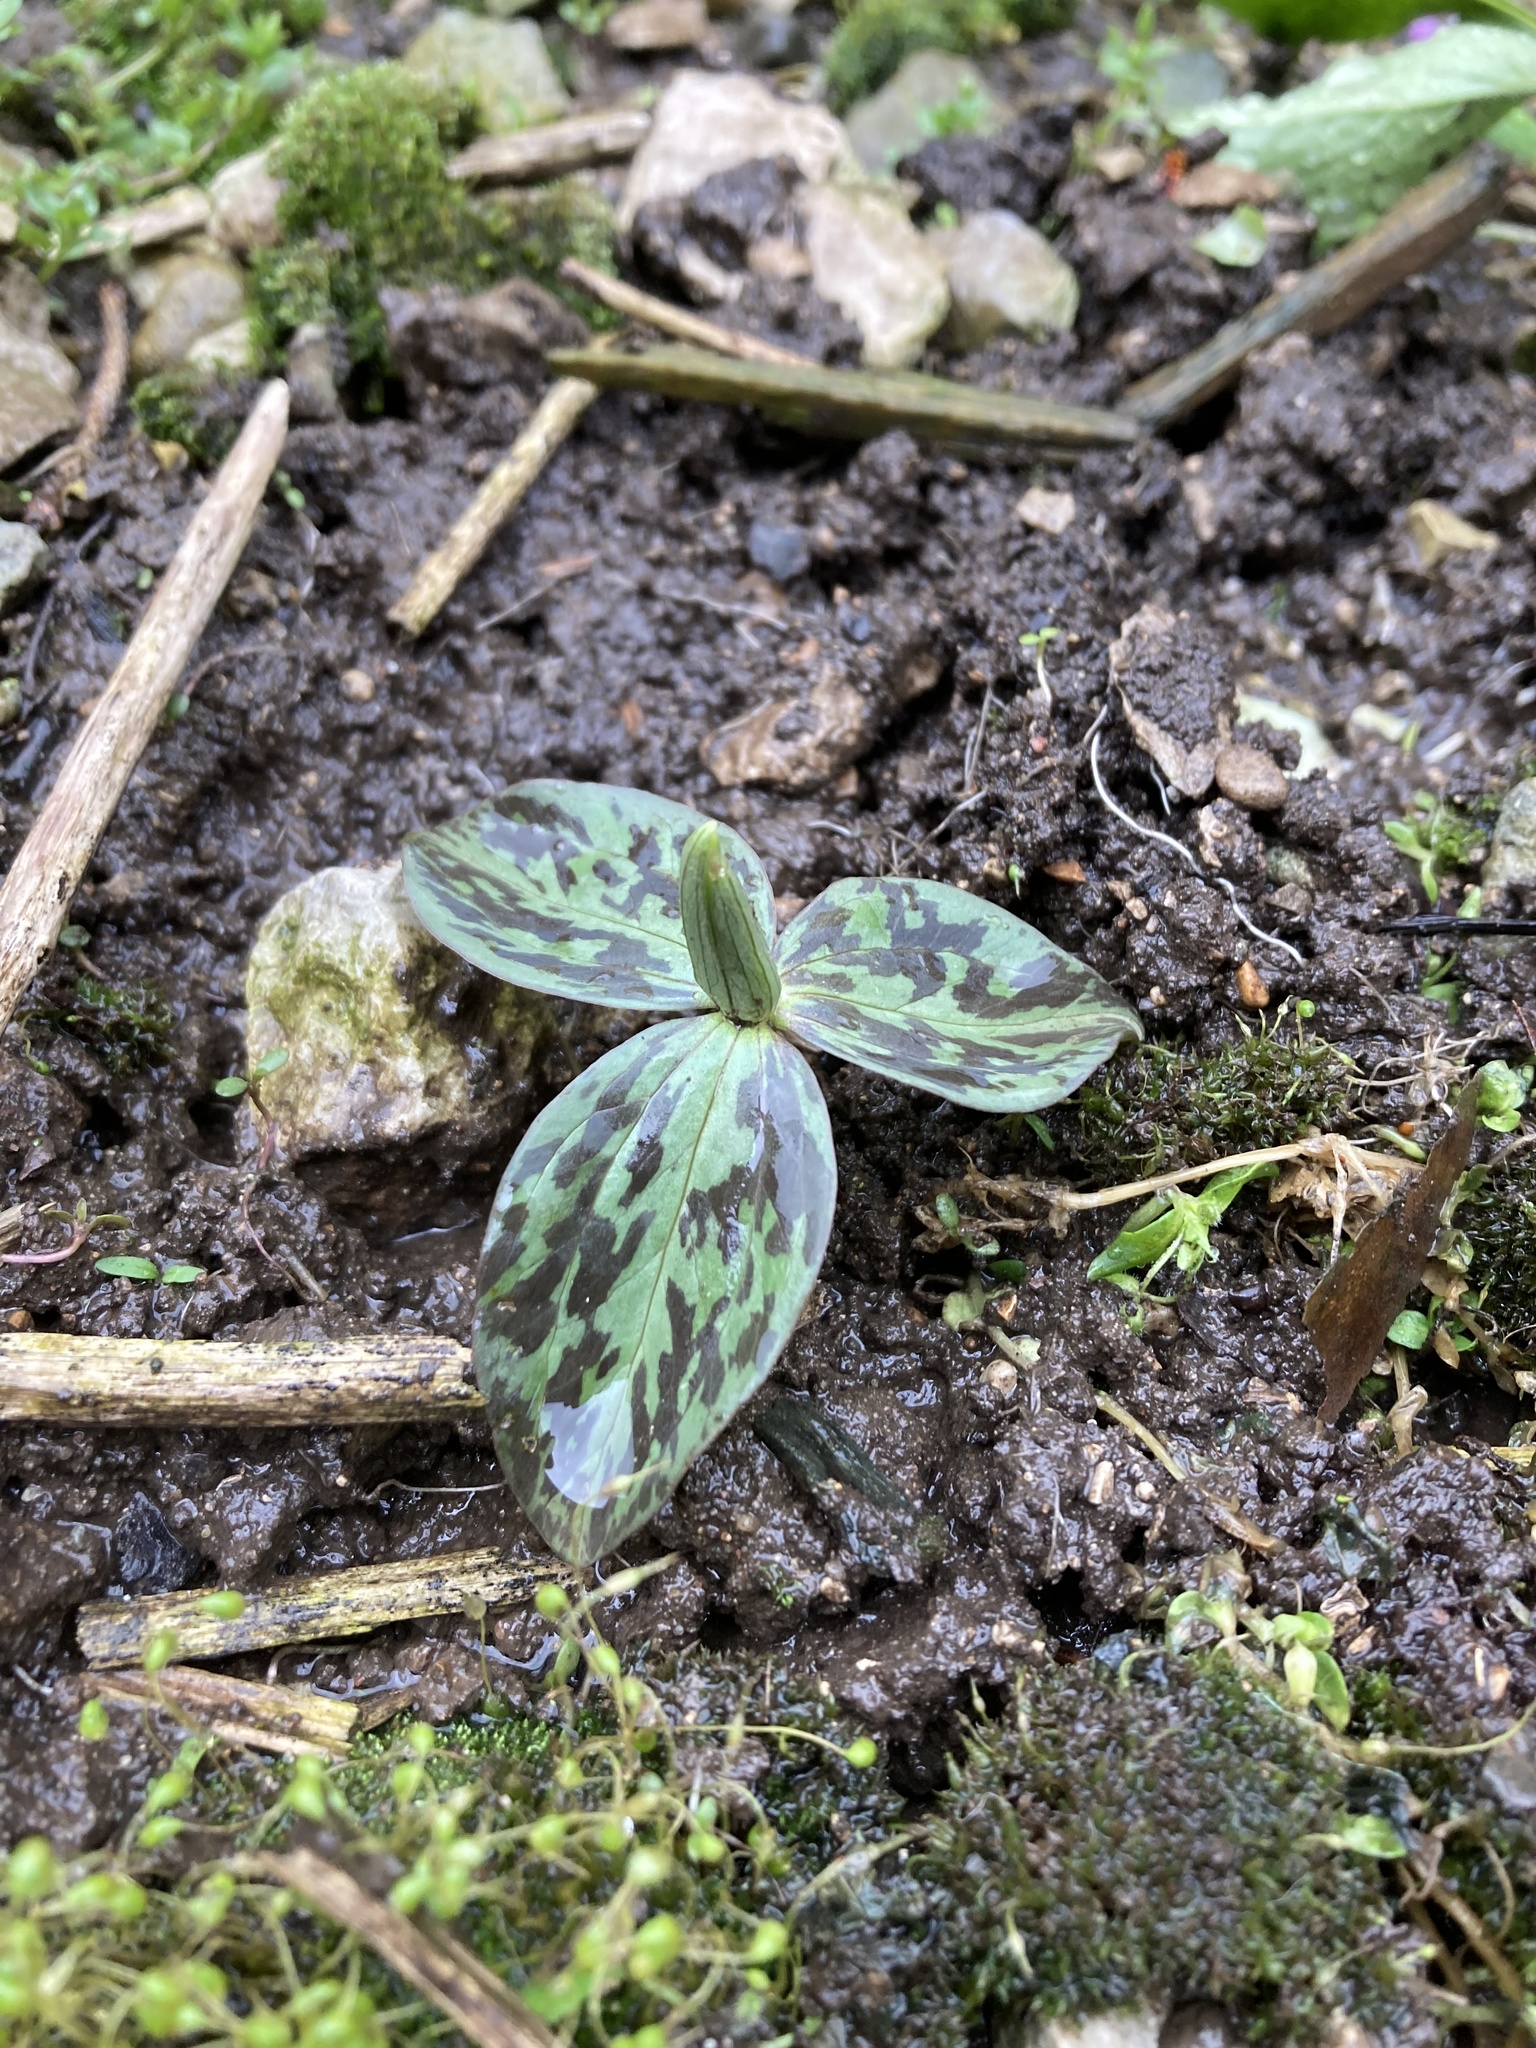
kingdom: Plantae
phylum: Tracheophyta
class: Liliopsida
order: Liliales
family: Melanthiaceae
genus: Trillium
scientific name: Trillium sessile
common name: Sessile trillium
